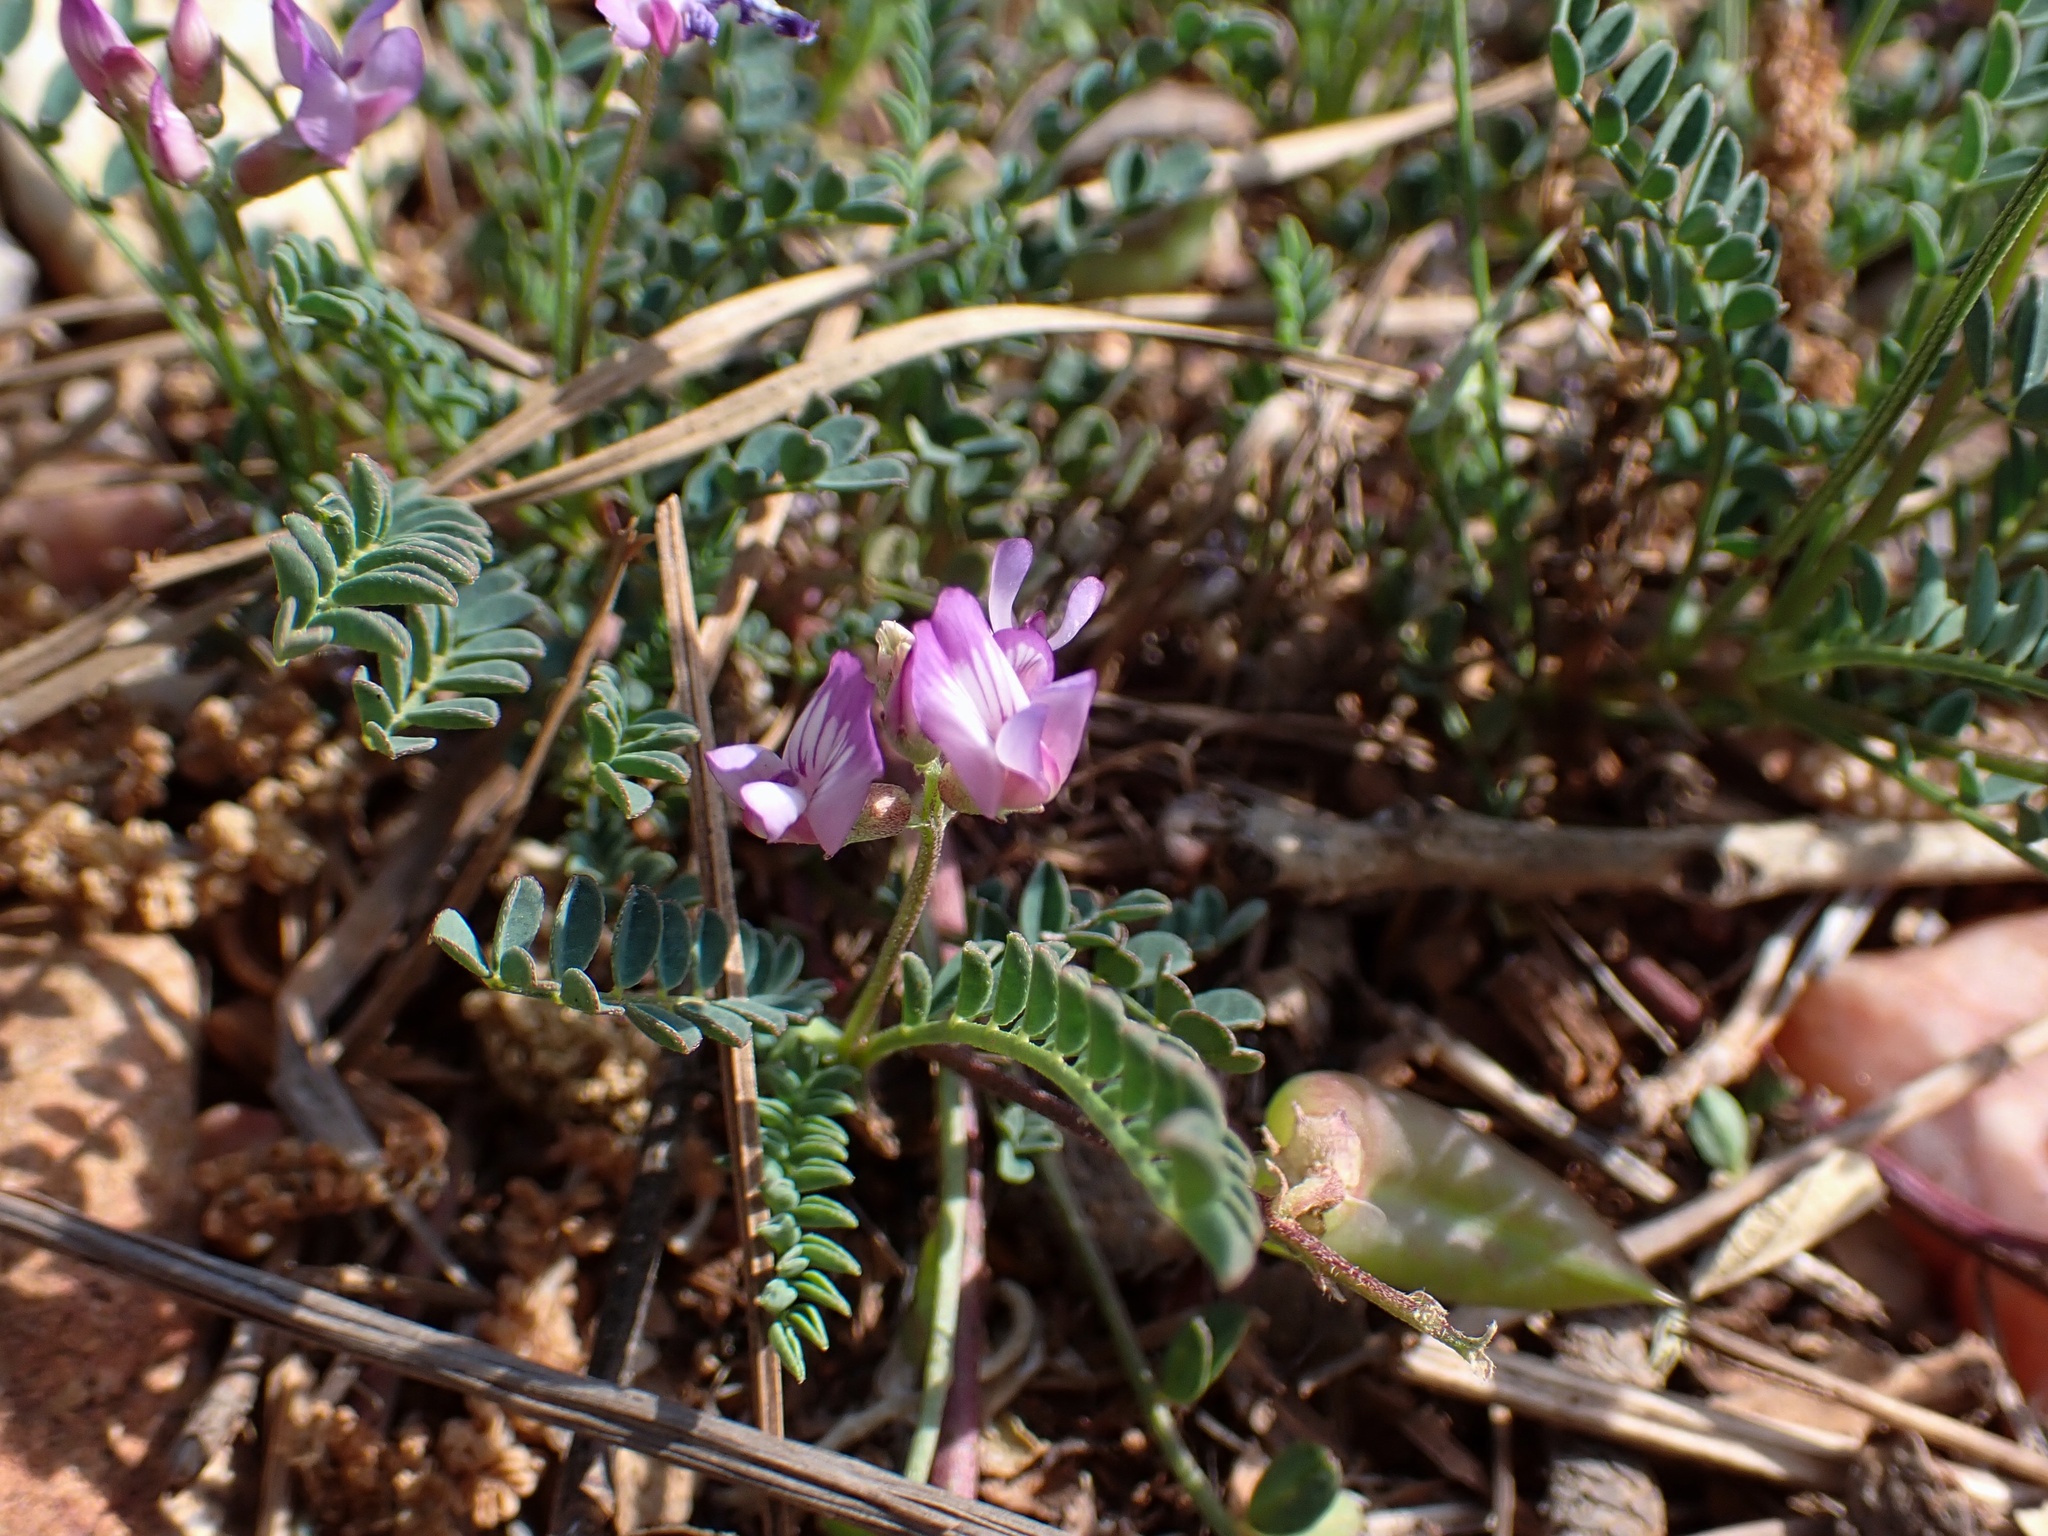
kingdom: Plantae
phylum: Tracheophyta
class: Magnoliopsida
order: Fabales
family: Fabaceae
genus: Astragalus
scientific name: Astragalus distortus
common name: Ozark milk-vetch
